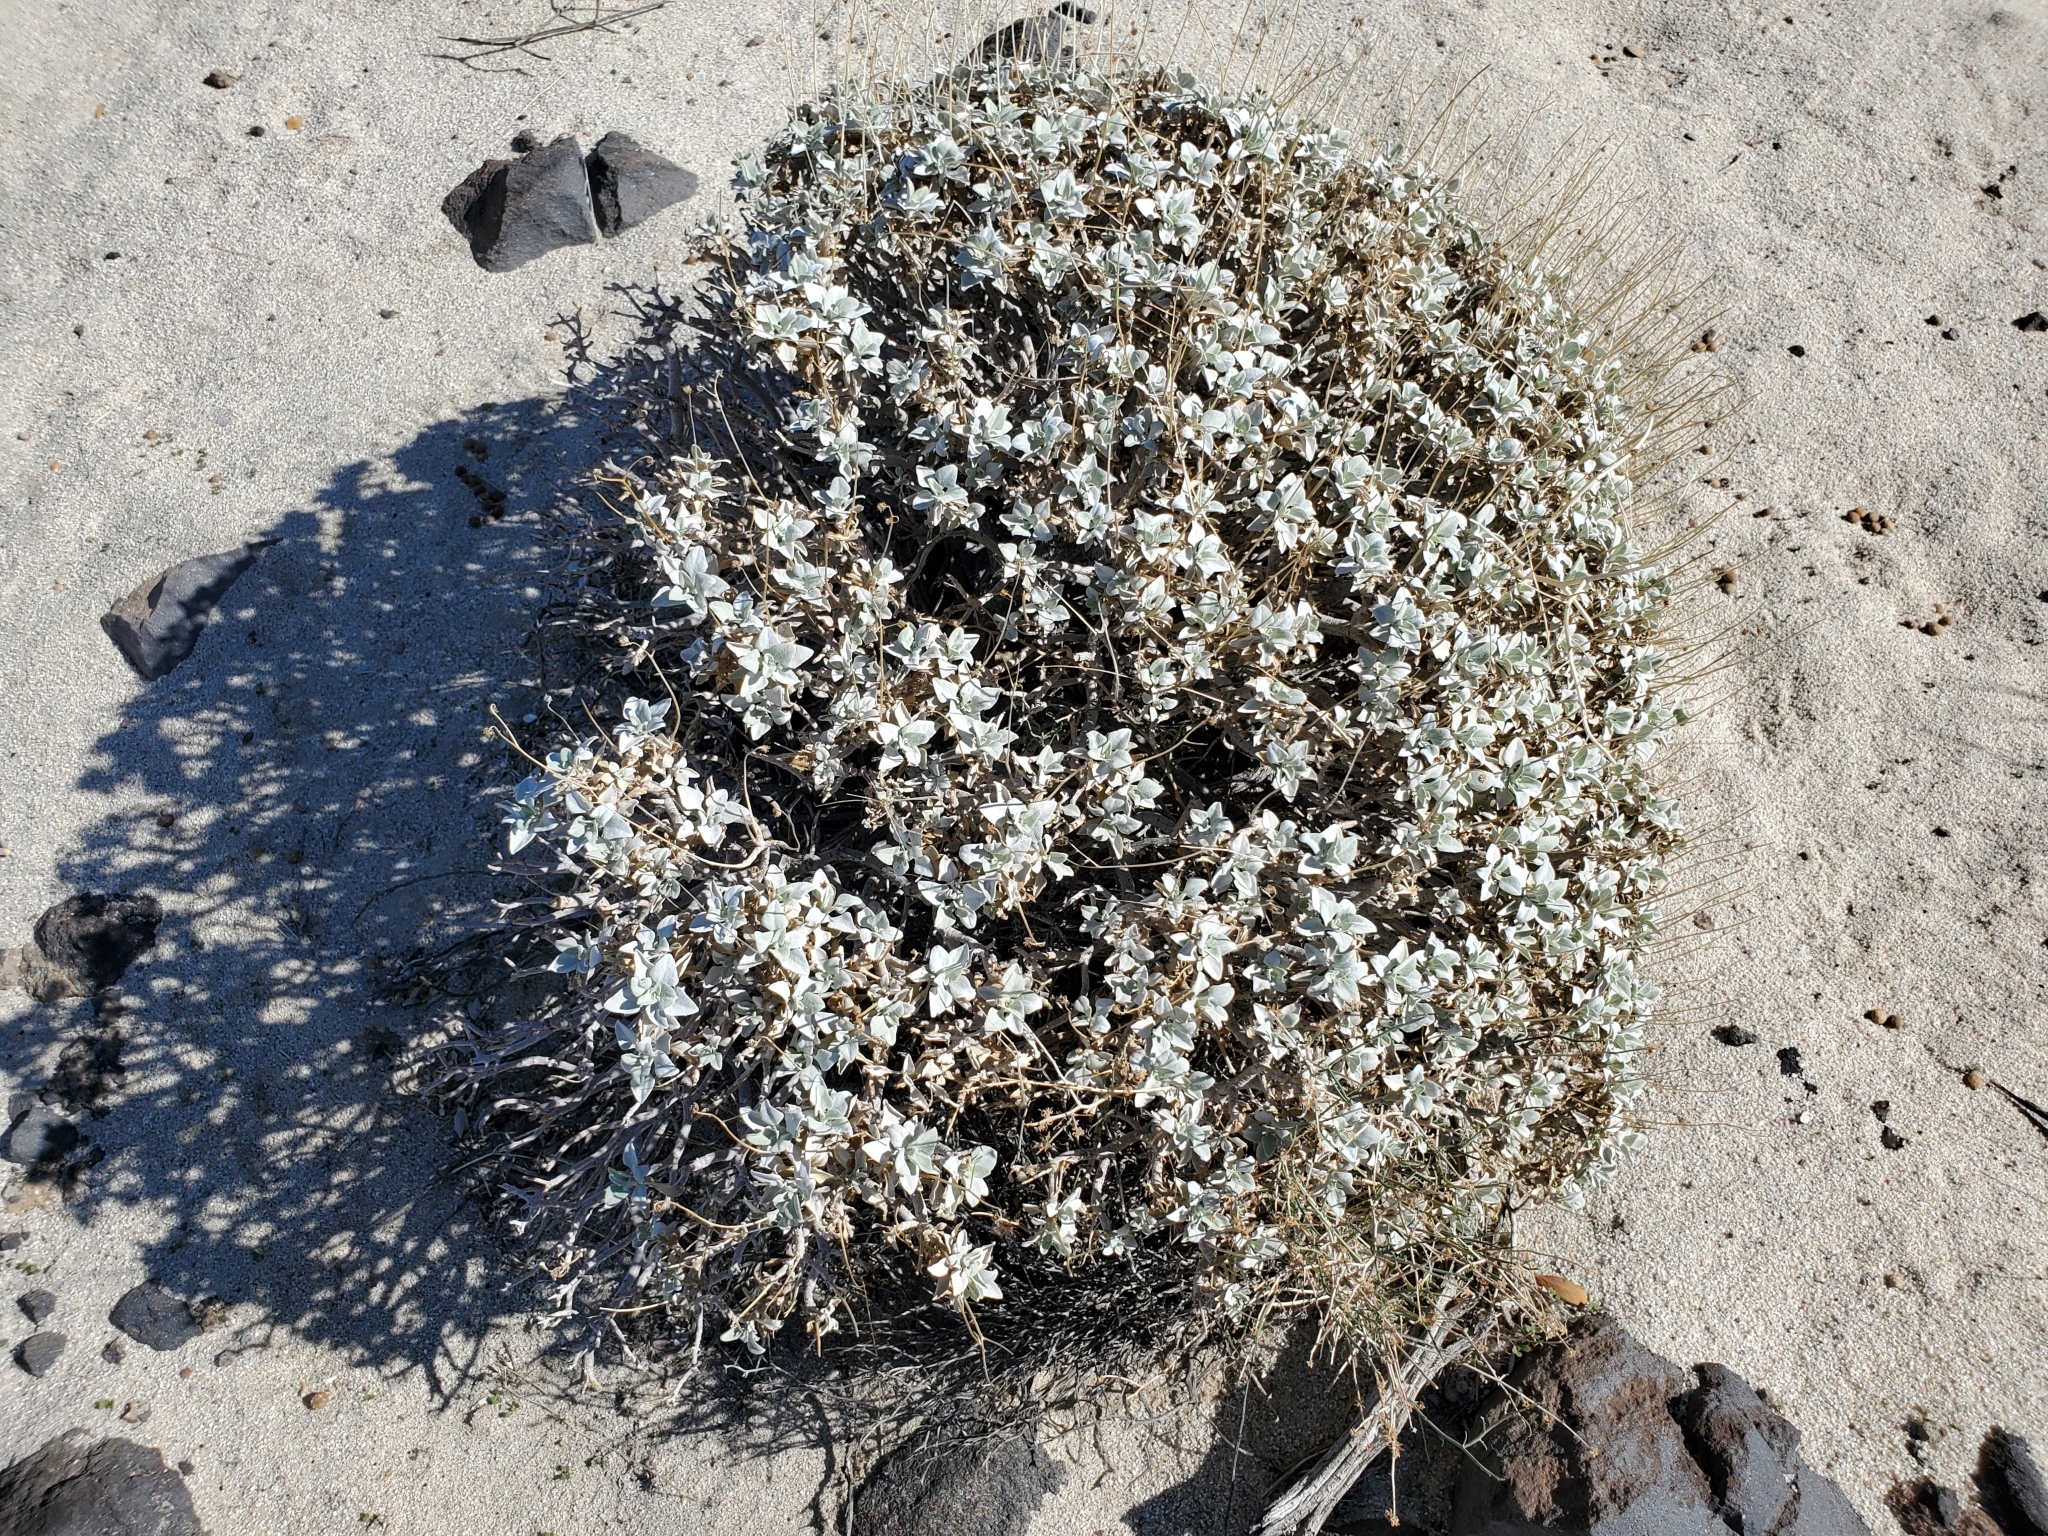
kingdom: Plantae
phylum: Tracheophyta
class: Magnoliopsida
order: Asterales
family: Asteraceae
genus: Encelia
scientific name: Encelia farinosa
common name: Brittlebush
